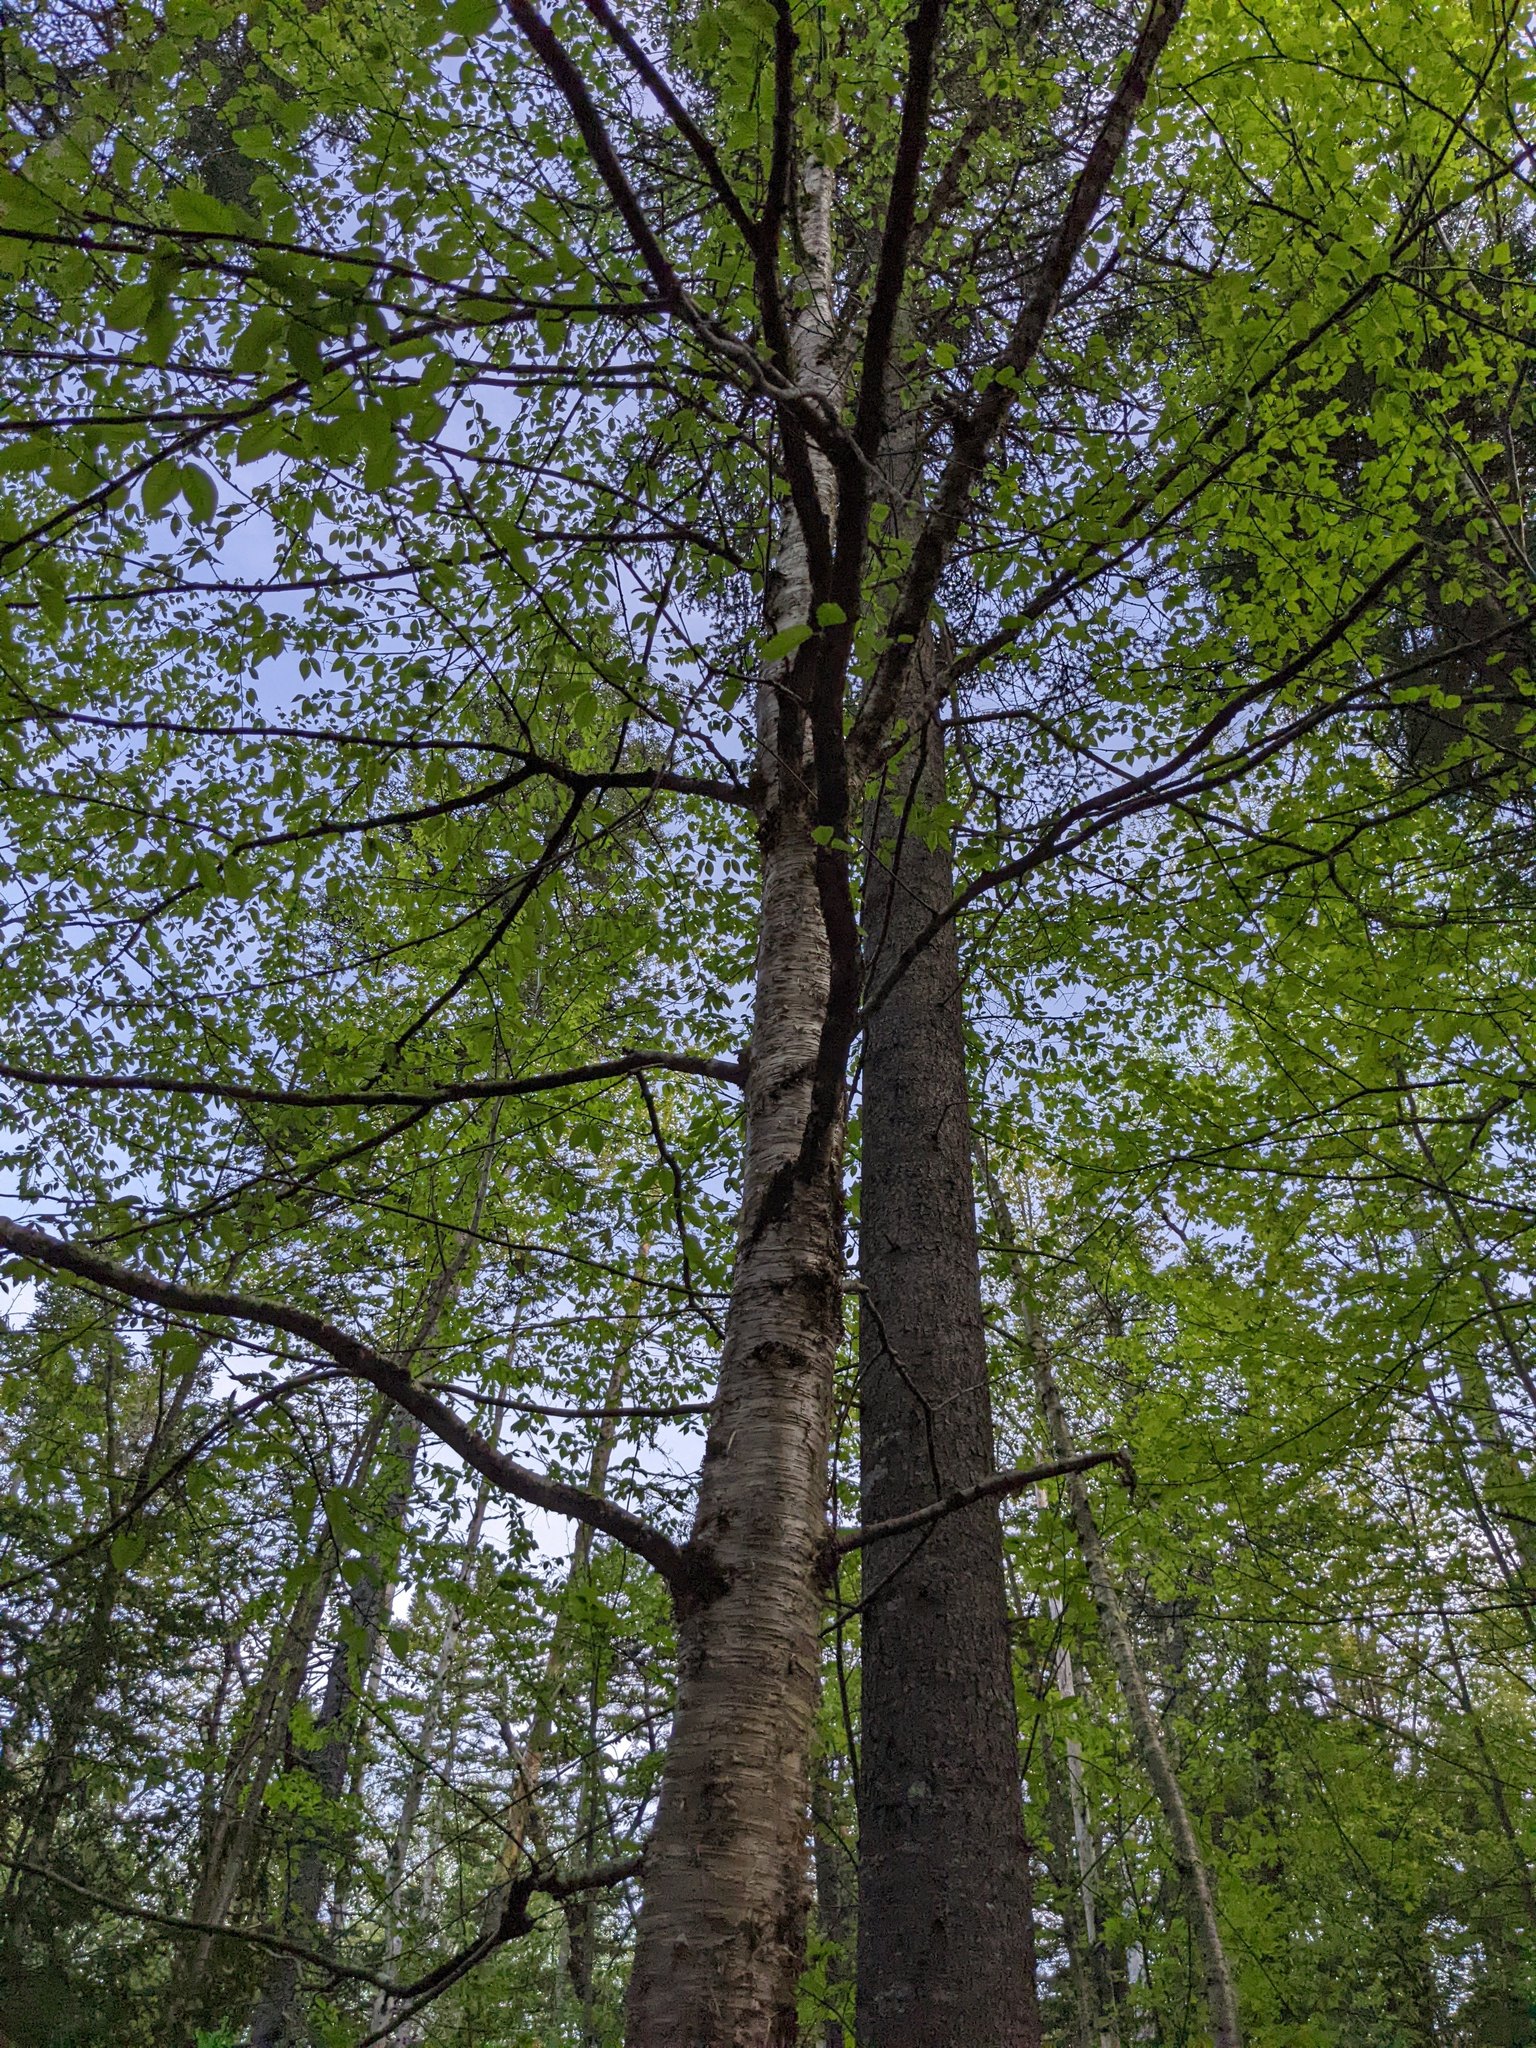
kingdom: Plantae
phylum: Tracheophyta
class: Magnoliopsida
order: Fagales
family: Betulaceae
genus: Betula
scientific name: Betula alleghaniensis
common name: Yellow birch
